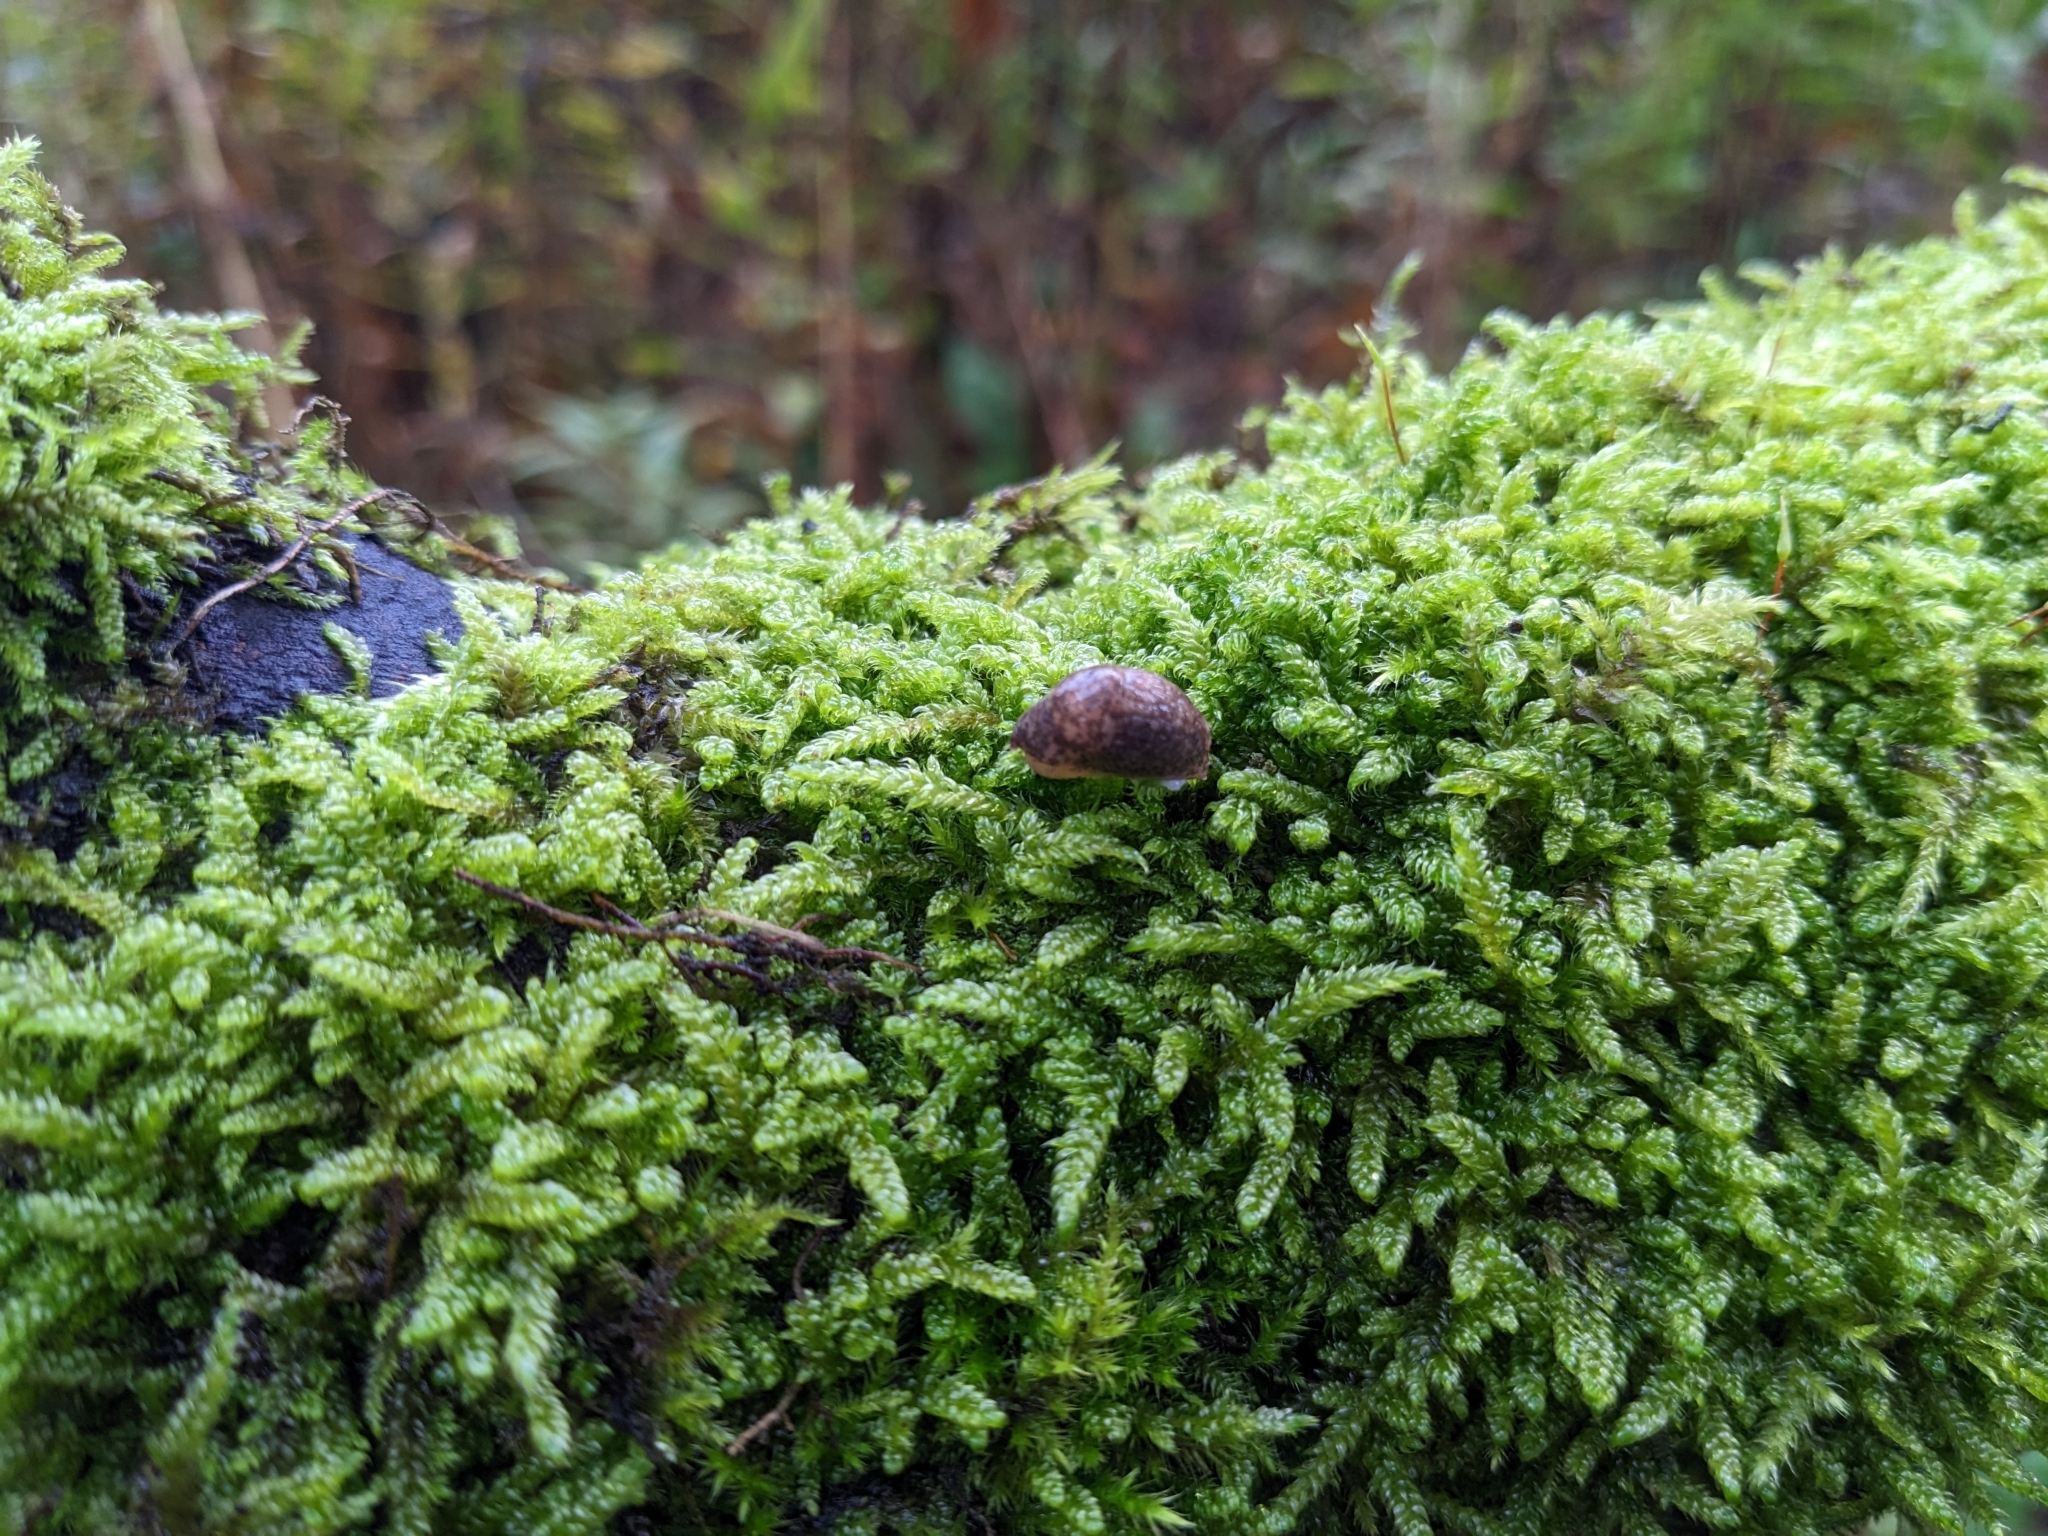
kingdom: Animalia
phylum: Mollusca
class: Gastropoda
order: Stylommatophora
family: Agriolimacidae
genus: Deroceras
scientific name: Deroceras reticulatum
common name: Gray field slug
